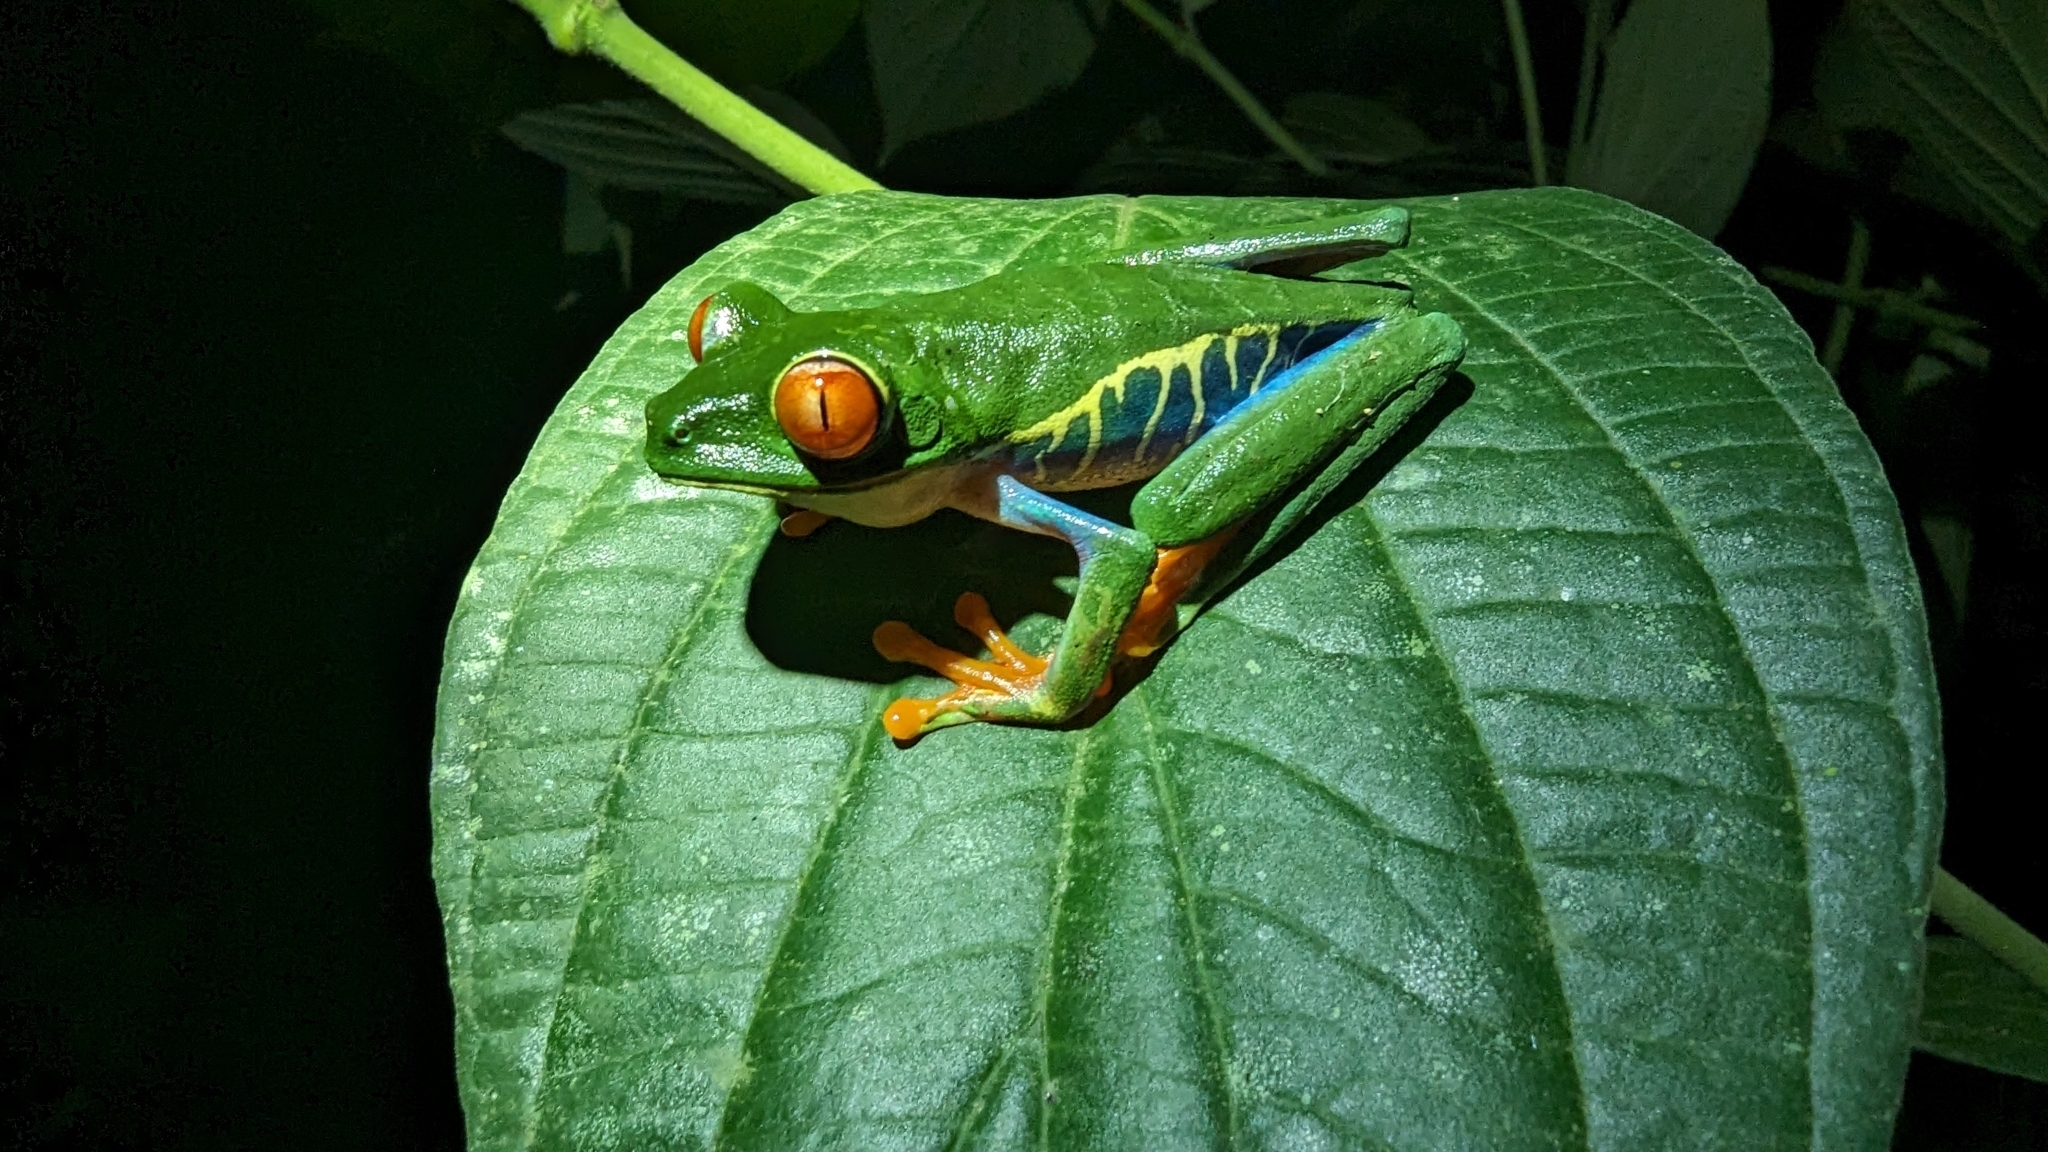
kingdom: Animalia
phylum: Chordata
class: Amphibia
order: Anura
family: Phyllomedusidae
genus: Agalychnis
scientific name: Agalychnis callidryas
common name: Red-eyed treefrog
